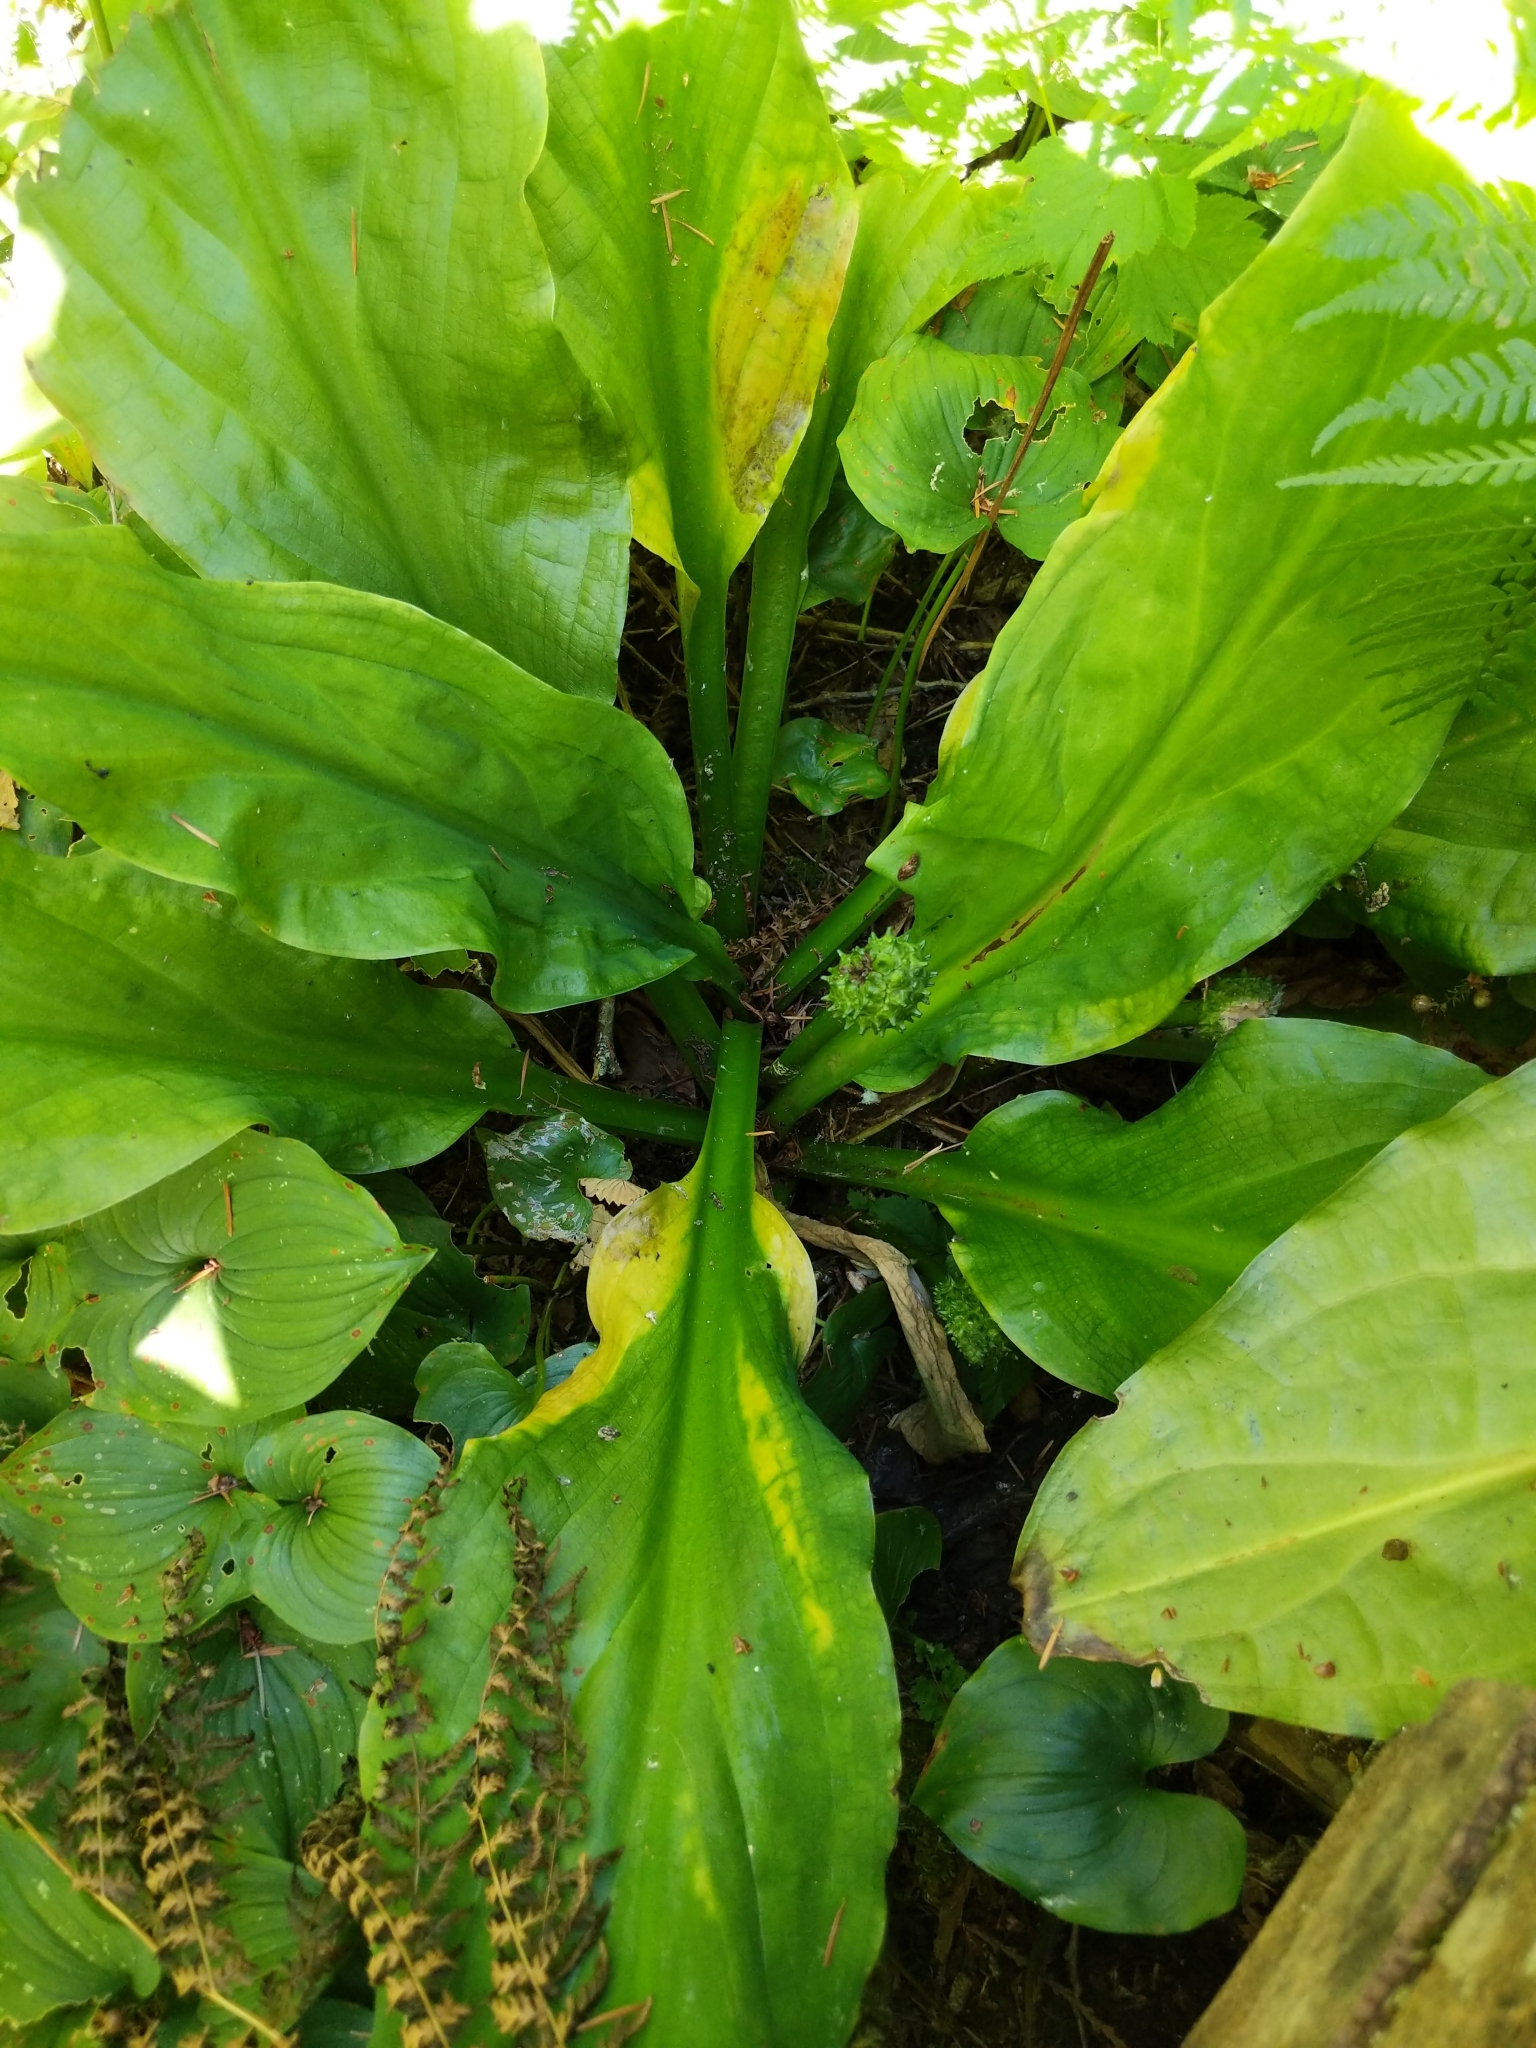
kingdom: Plantae
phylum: Tracheophyta
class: Liliopsida
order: Alismatales
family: Araceae
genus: Lysichiton
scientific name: Lysichiton americanus
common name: American skunk cabbage
